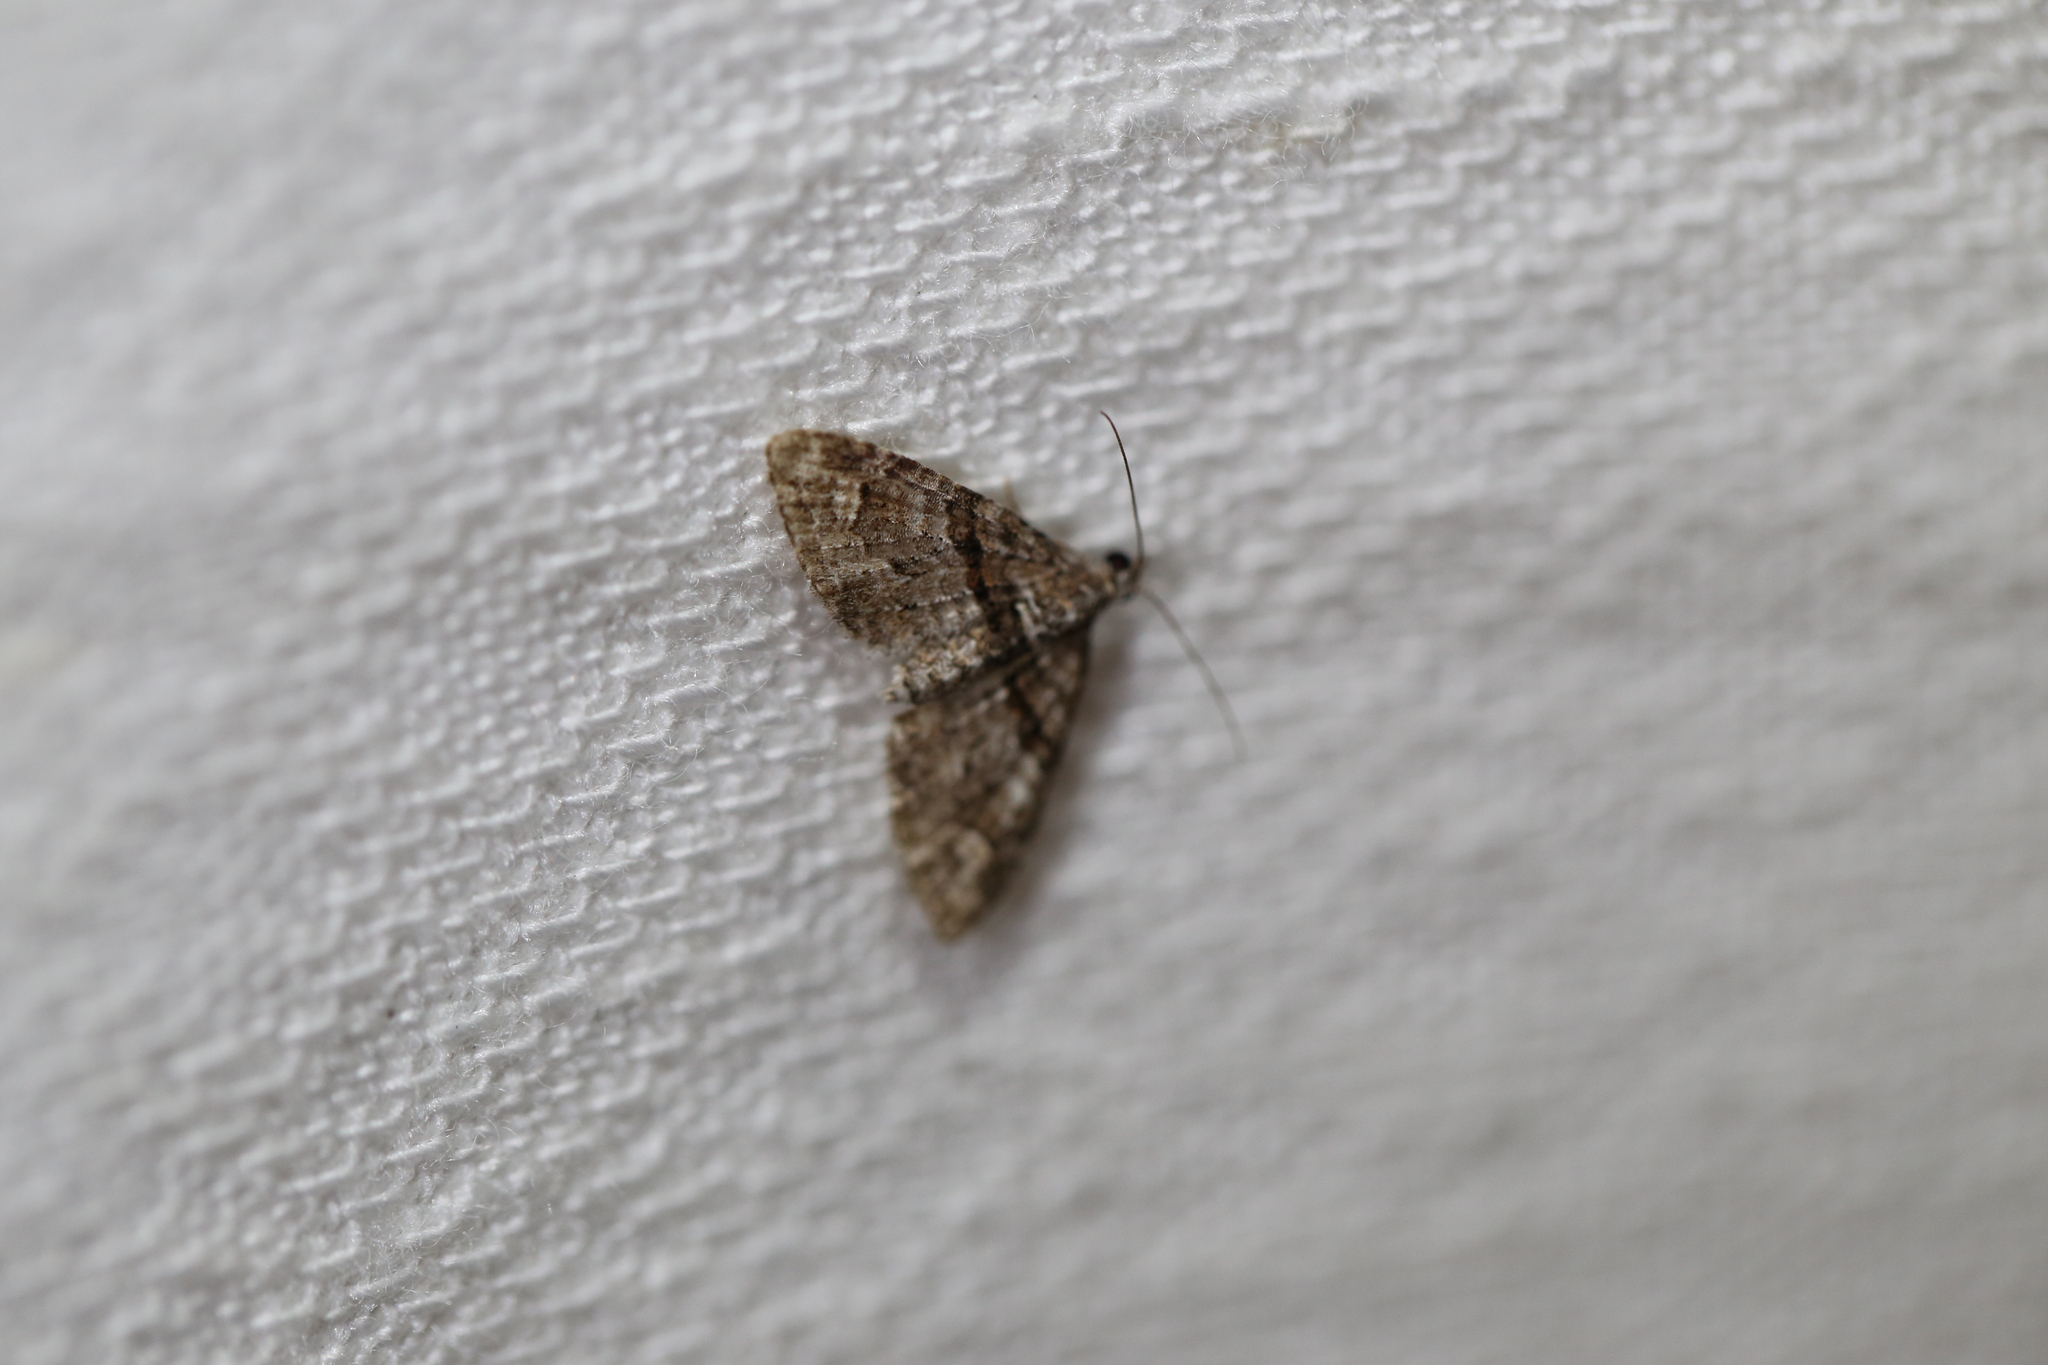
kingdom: Animalia
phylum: Arthropoda
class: Insecta
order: Lepidoptera
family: Geometridae
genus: Phrissogonus
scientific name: Phrissogonus laticostata
